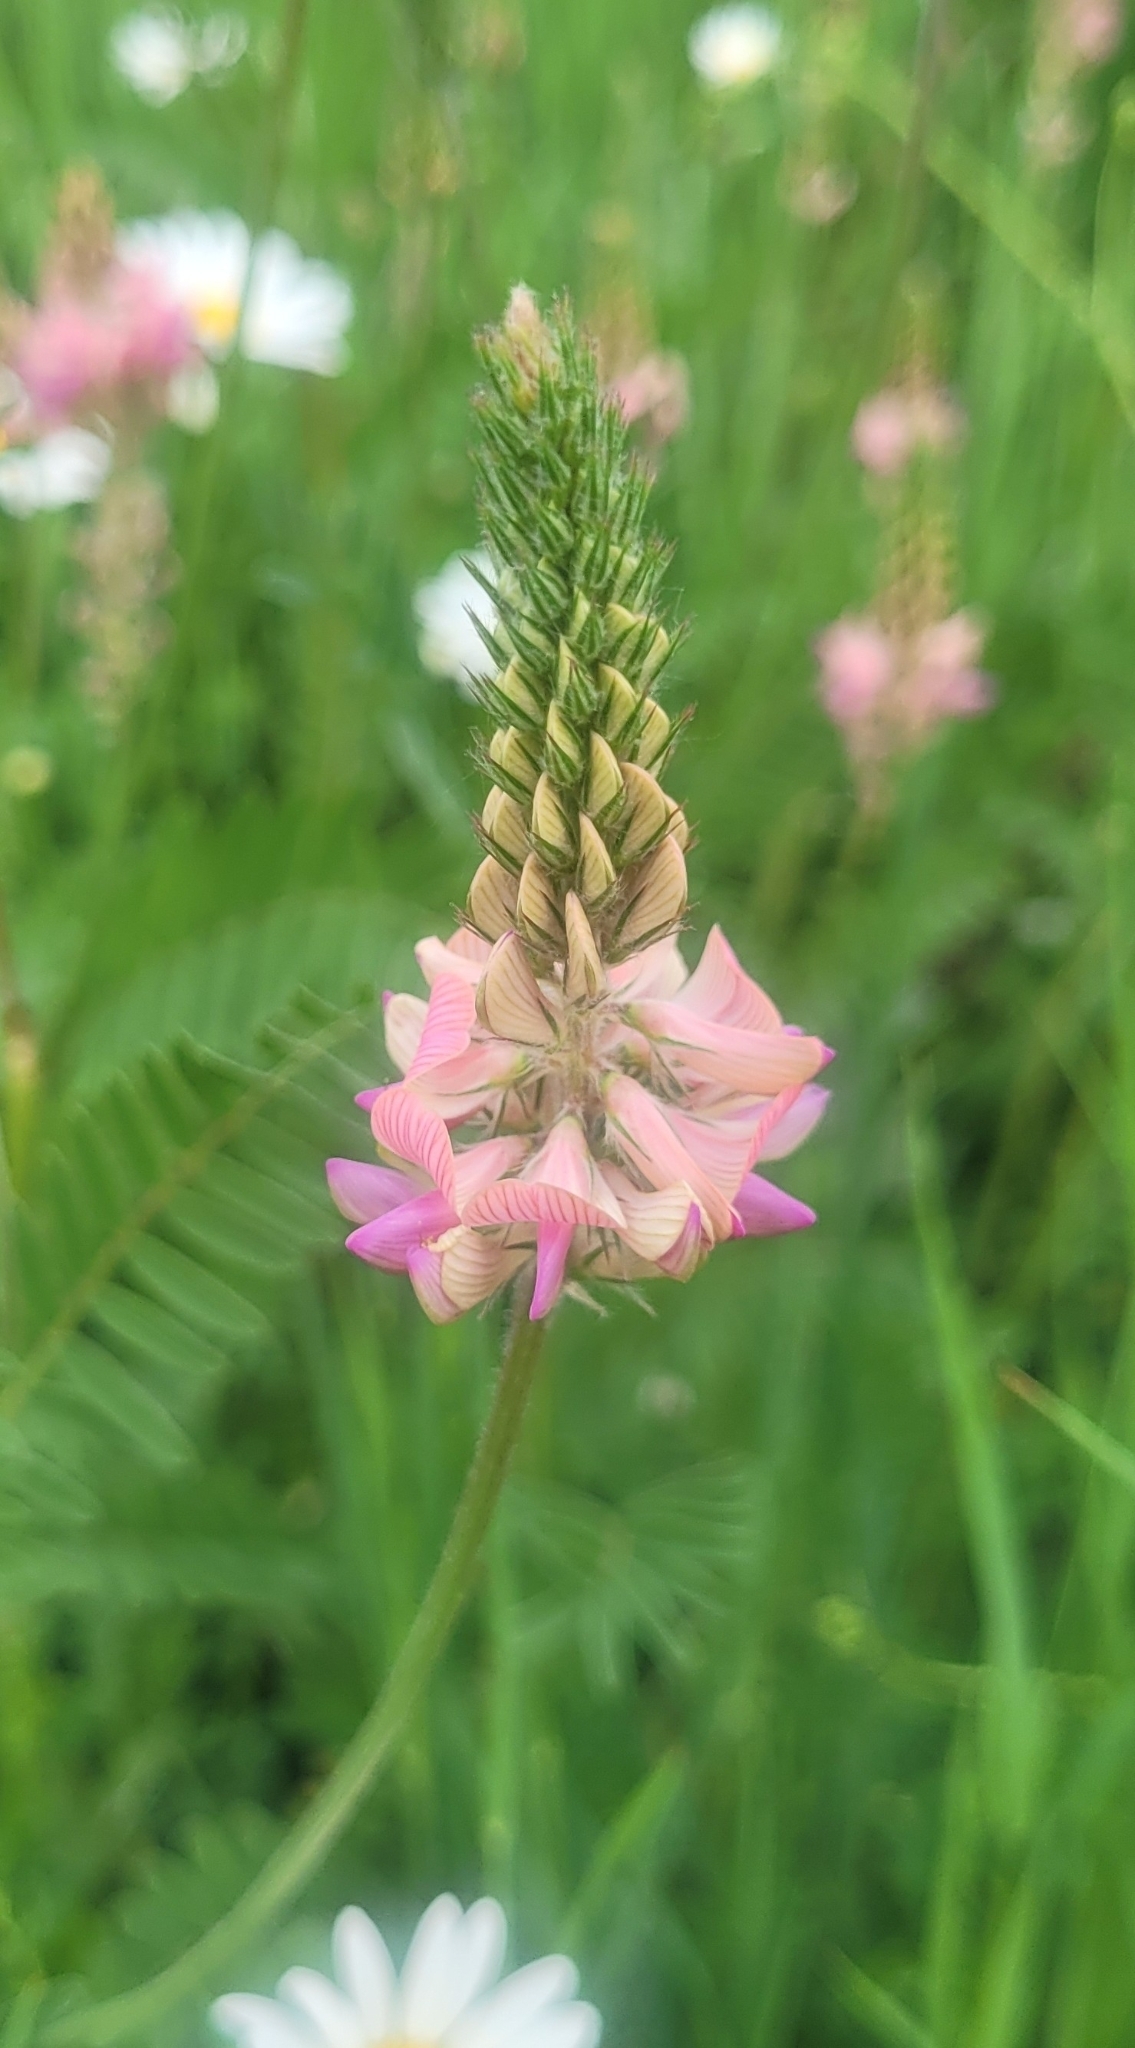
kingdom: Plantae
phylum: Tracheophyta
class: Magnoliopsida
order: Fabales
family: Fabaceae
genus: Onobrychis
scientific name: Onobrychis arenaria
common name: Sand esparcet
